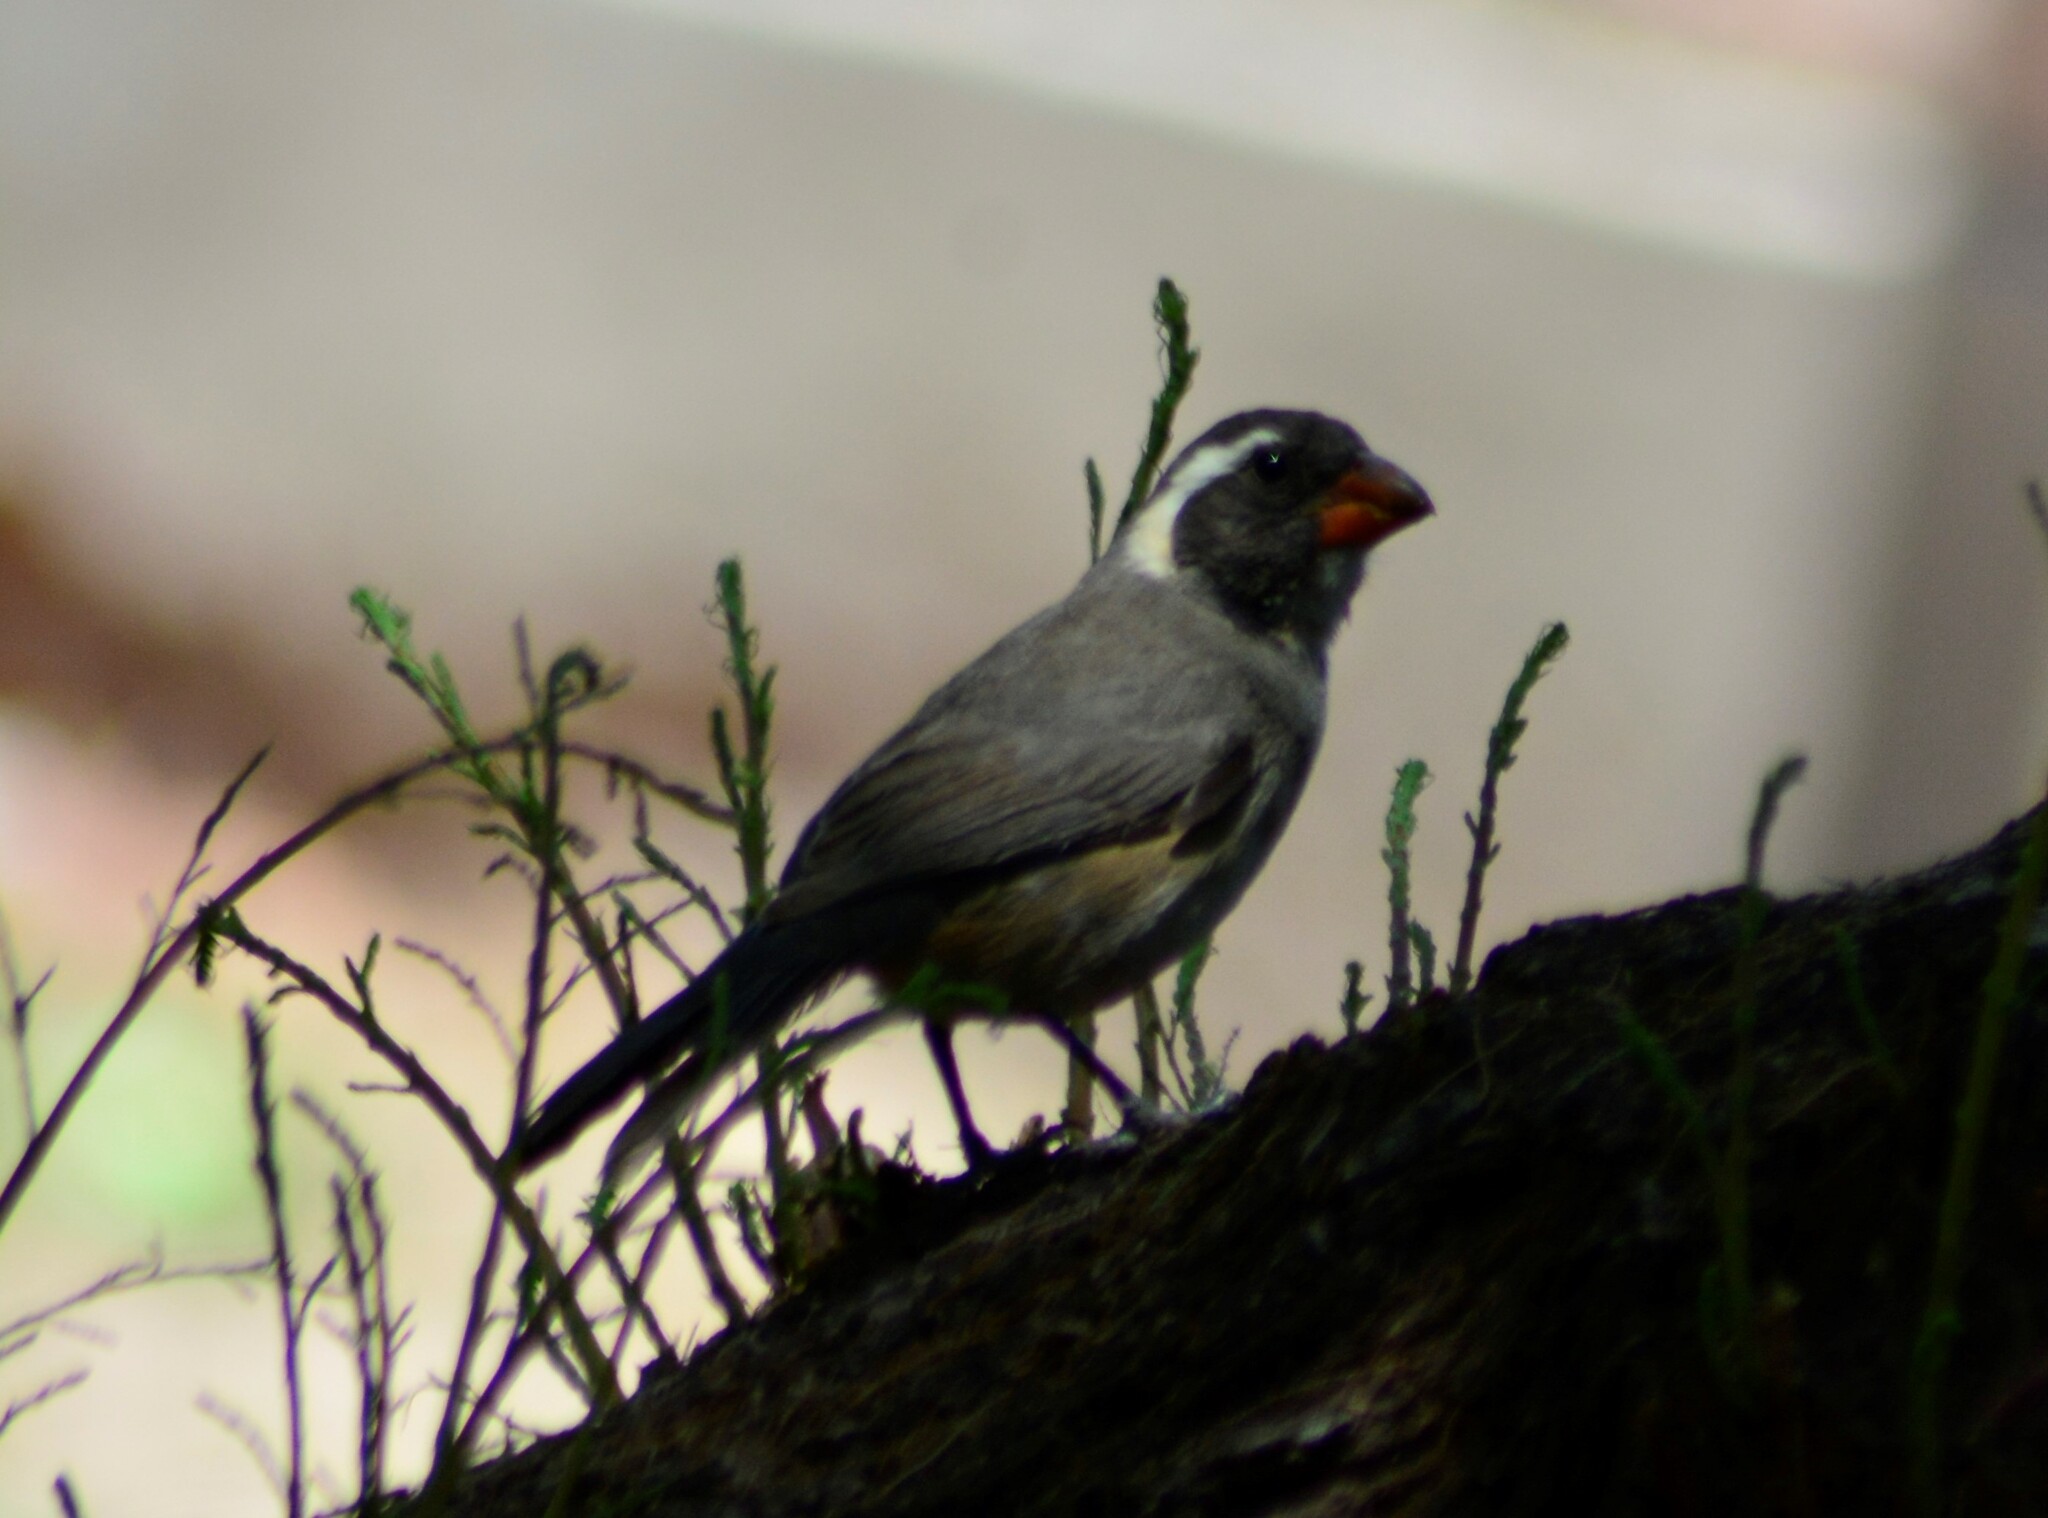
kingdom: Animalia
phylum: Chordata
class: Aves
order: Passeriformes
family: Thraupidae
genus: Saltator
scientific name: Saltator aurantiirostris
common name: Golden-billed saltator
